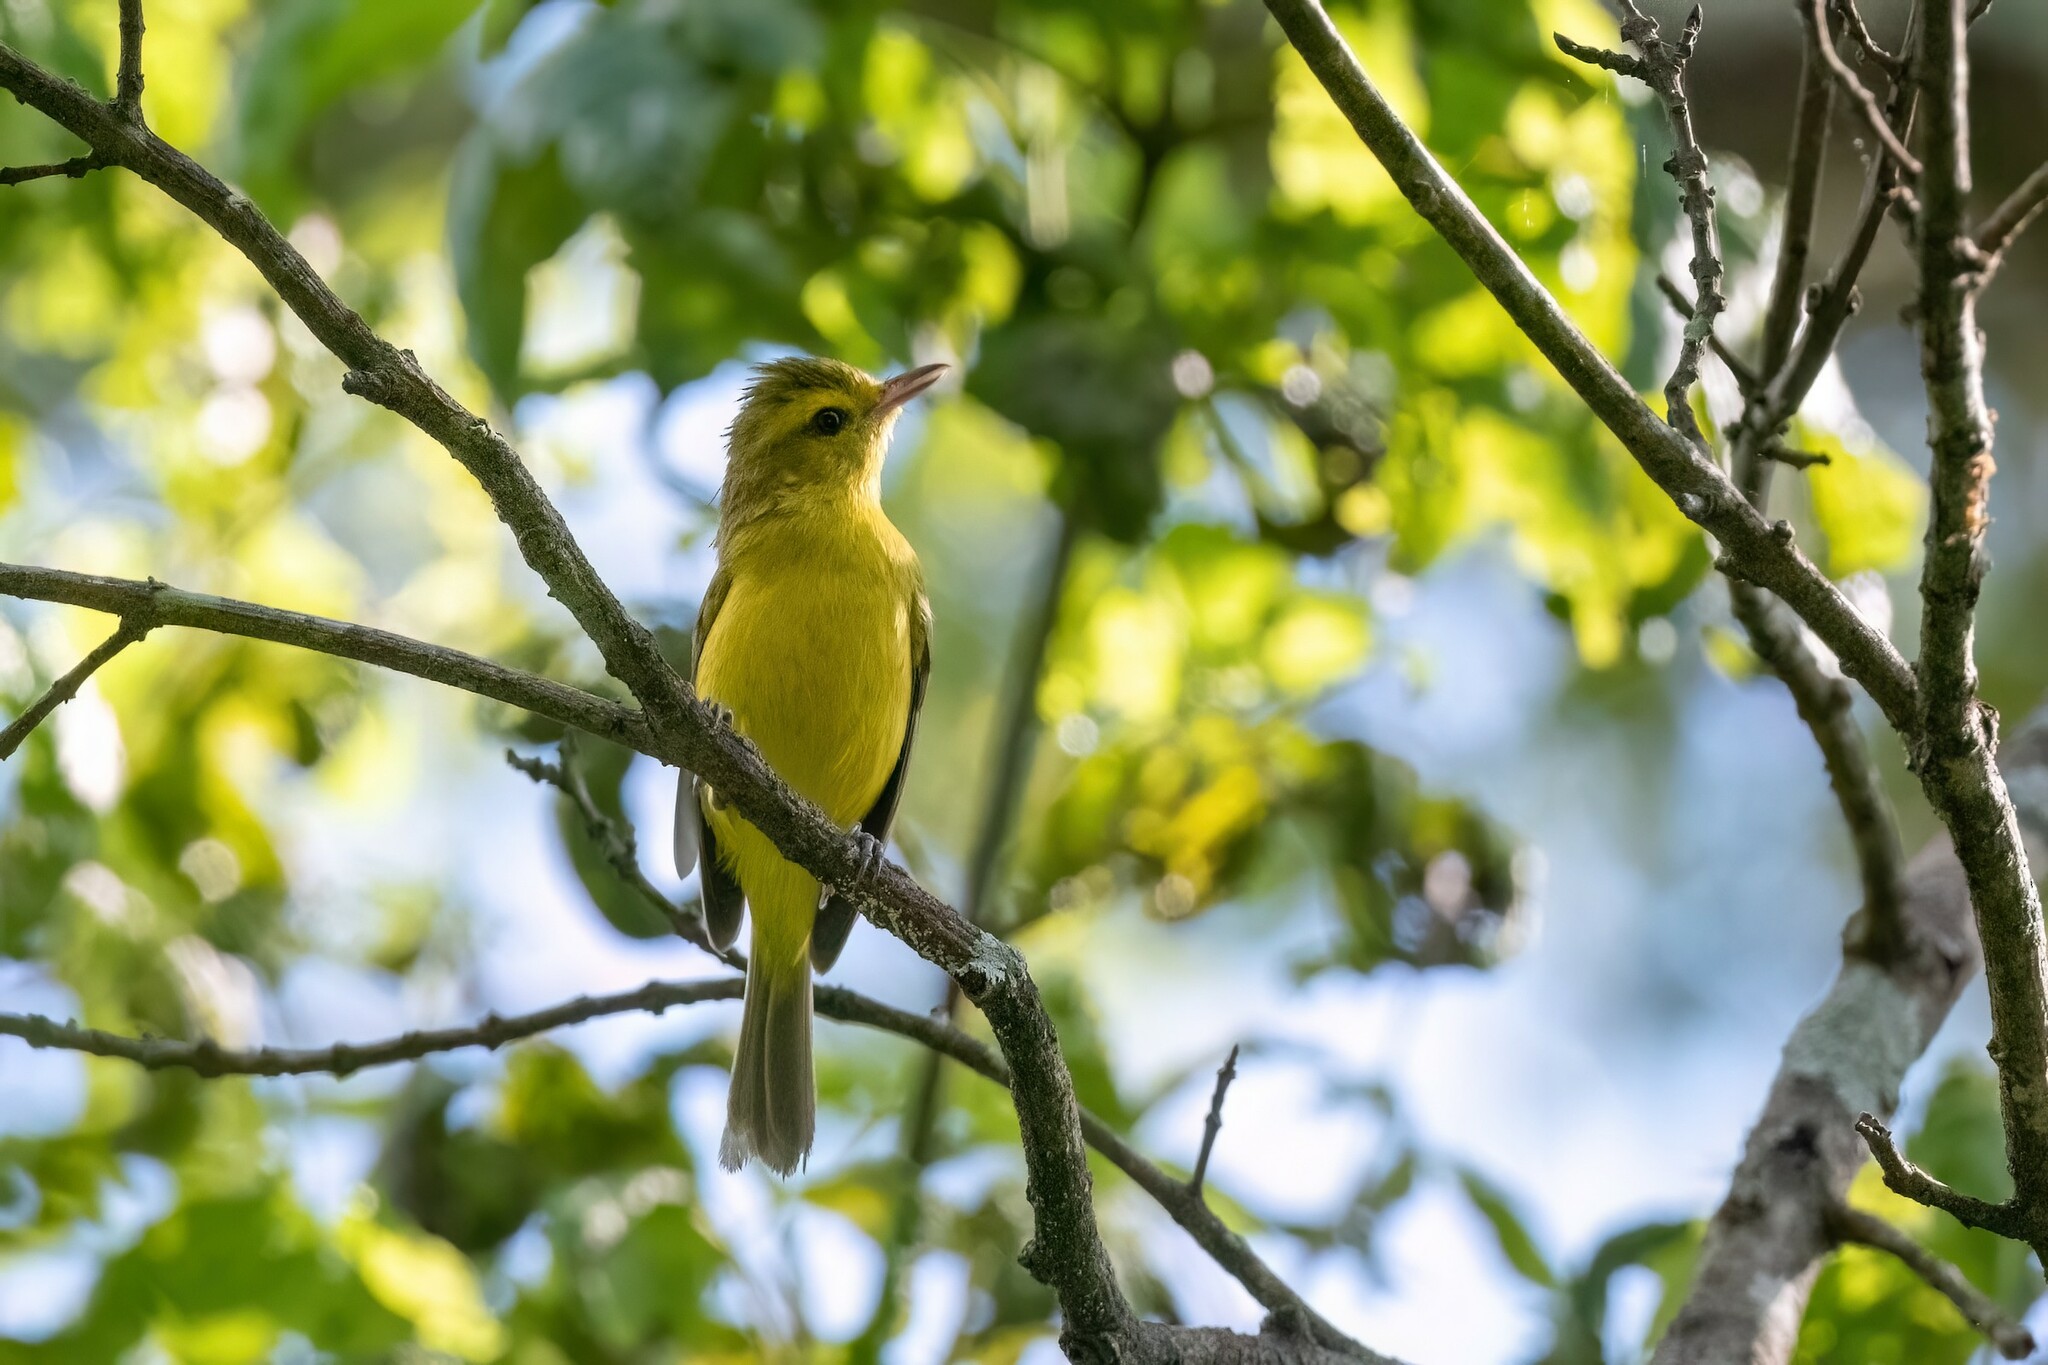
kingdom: Animalia
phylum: Chordata
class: Aves
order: Passeriformes
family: Vireonidae
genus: Vireo
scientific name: Vireo hypochryseus
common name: Golden vireo
